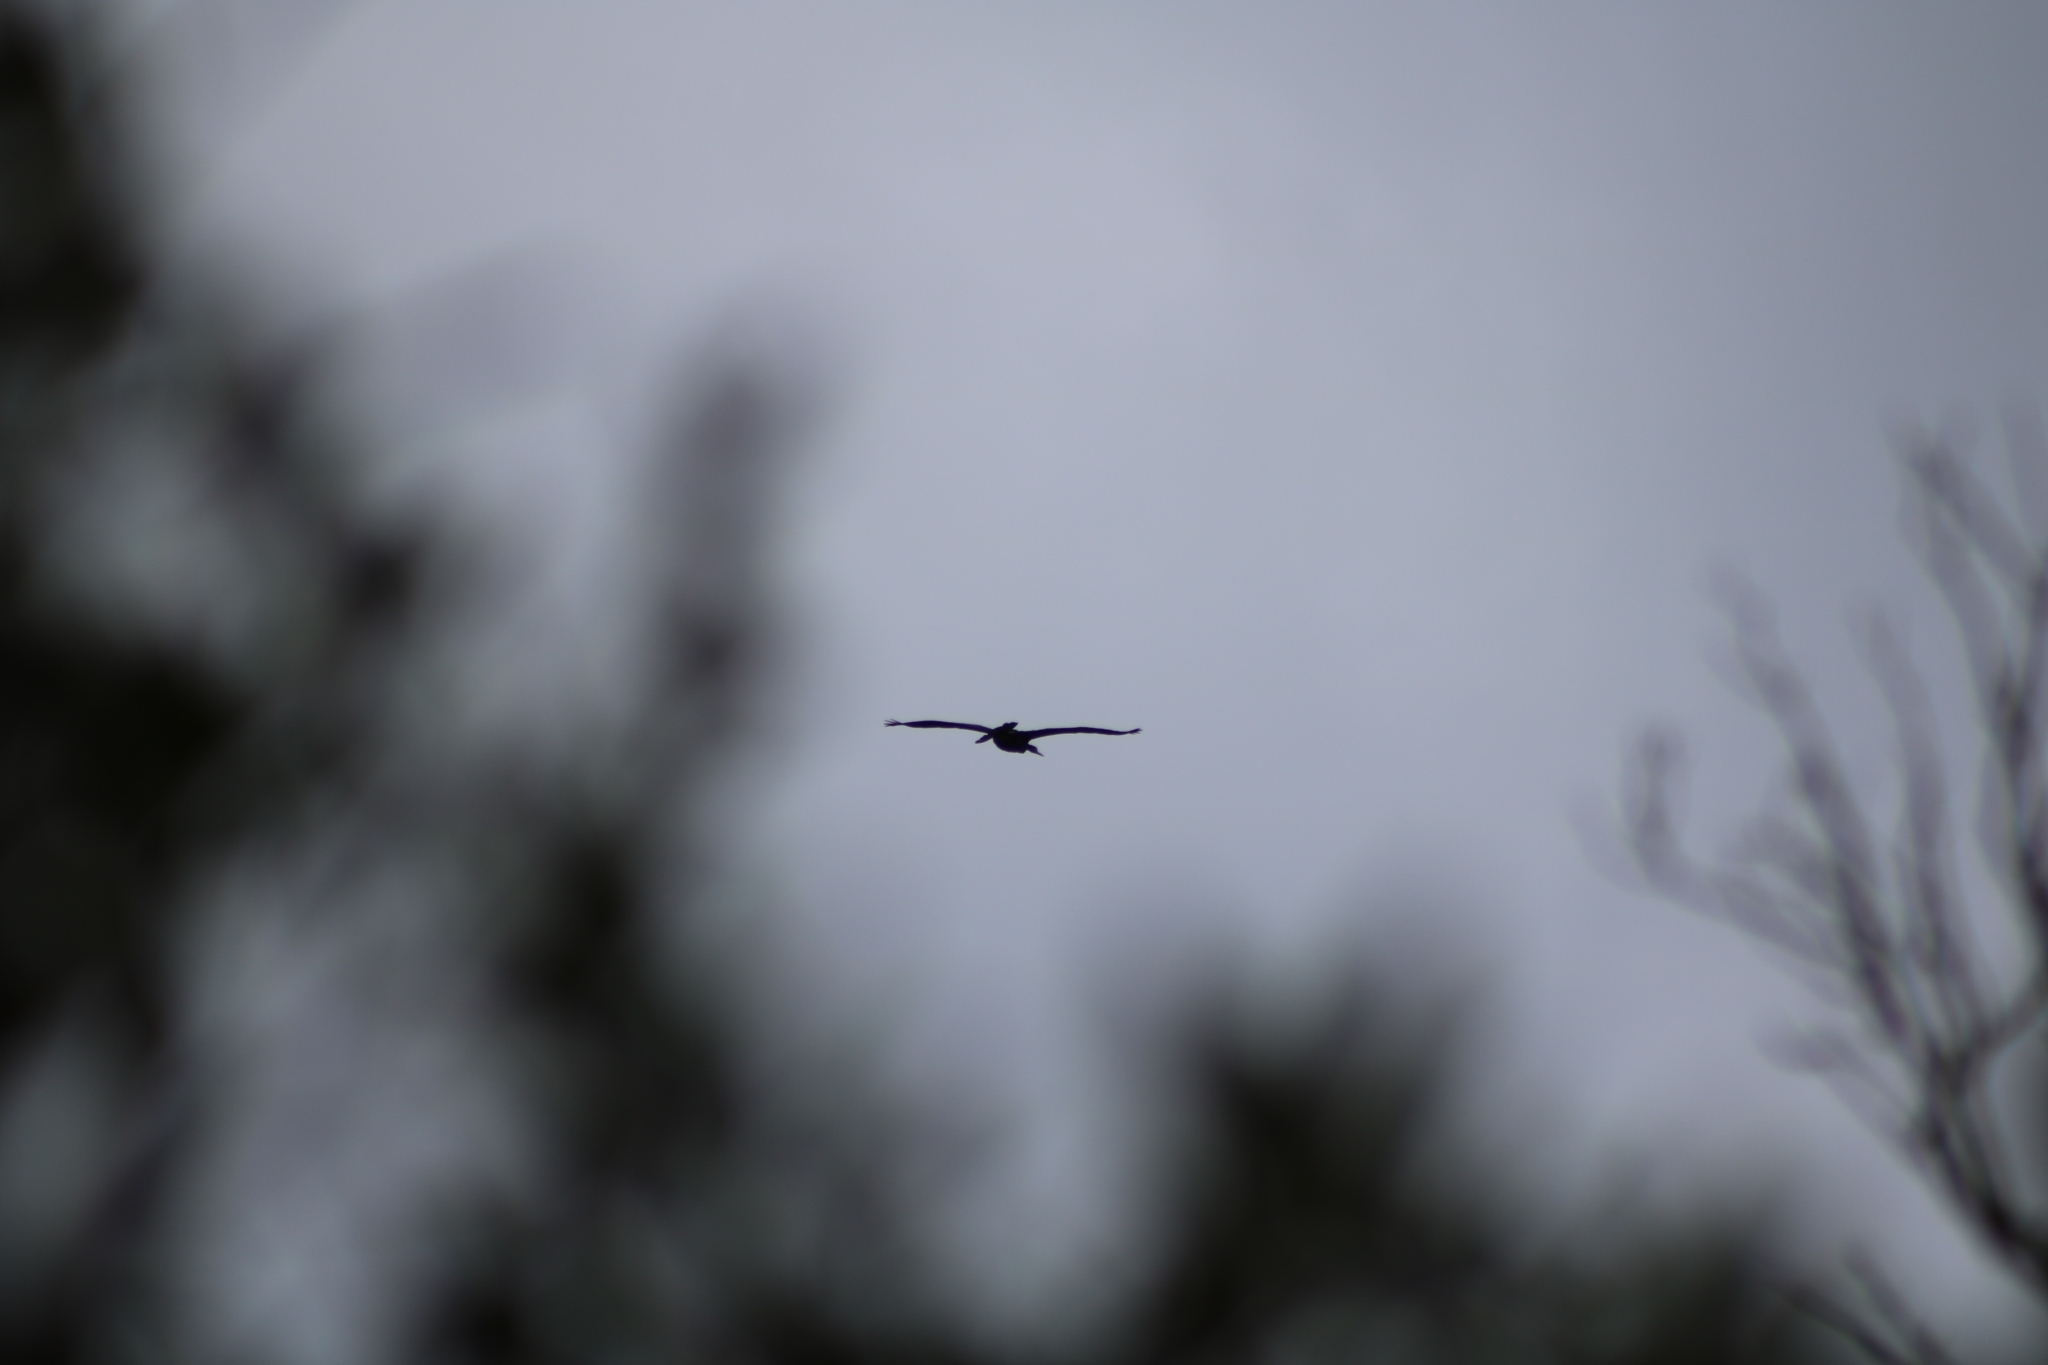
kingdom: Animalia
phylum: Chordata
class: Aves
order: Suliformes
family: Anhingidae
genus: Anhinga
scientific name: Anhinga novaehollandiae
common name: Australasian darter
